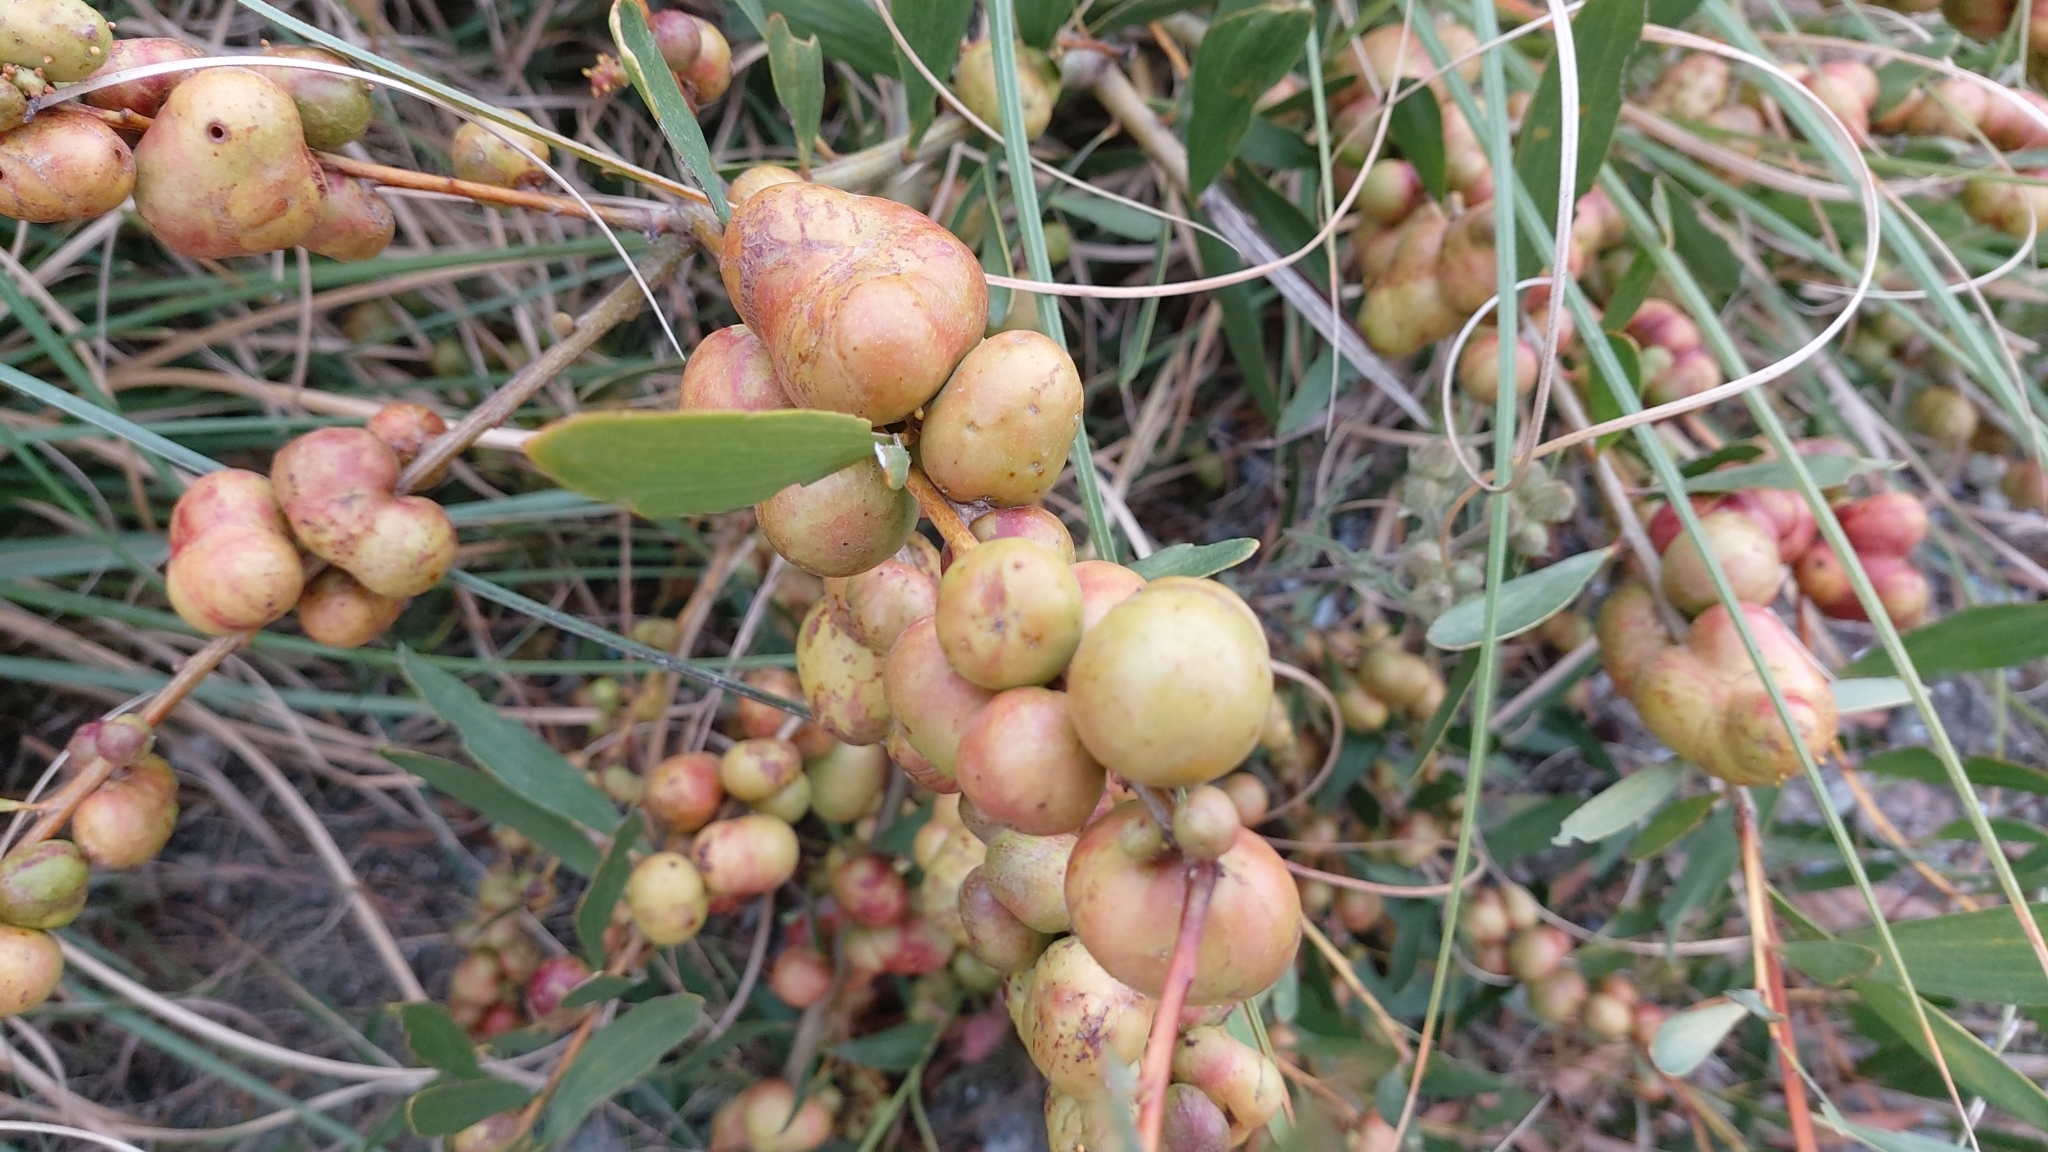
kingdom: Animalia
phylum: Arthropoda
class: Insecta
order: Hymenoptera
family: Pteromalidae
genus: Trichilogaster
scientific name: Trichilogaster acaciaelongifoliae
